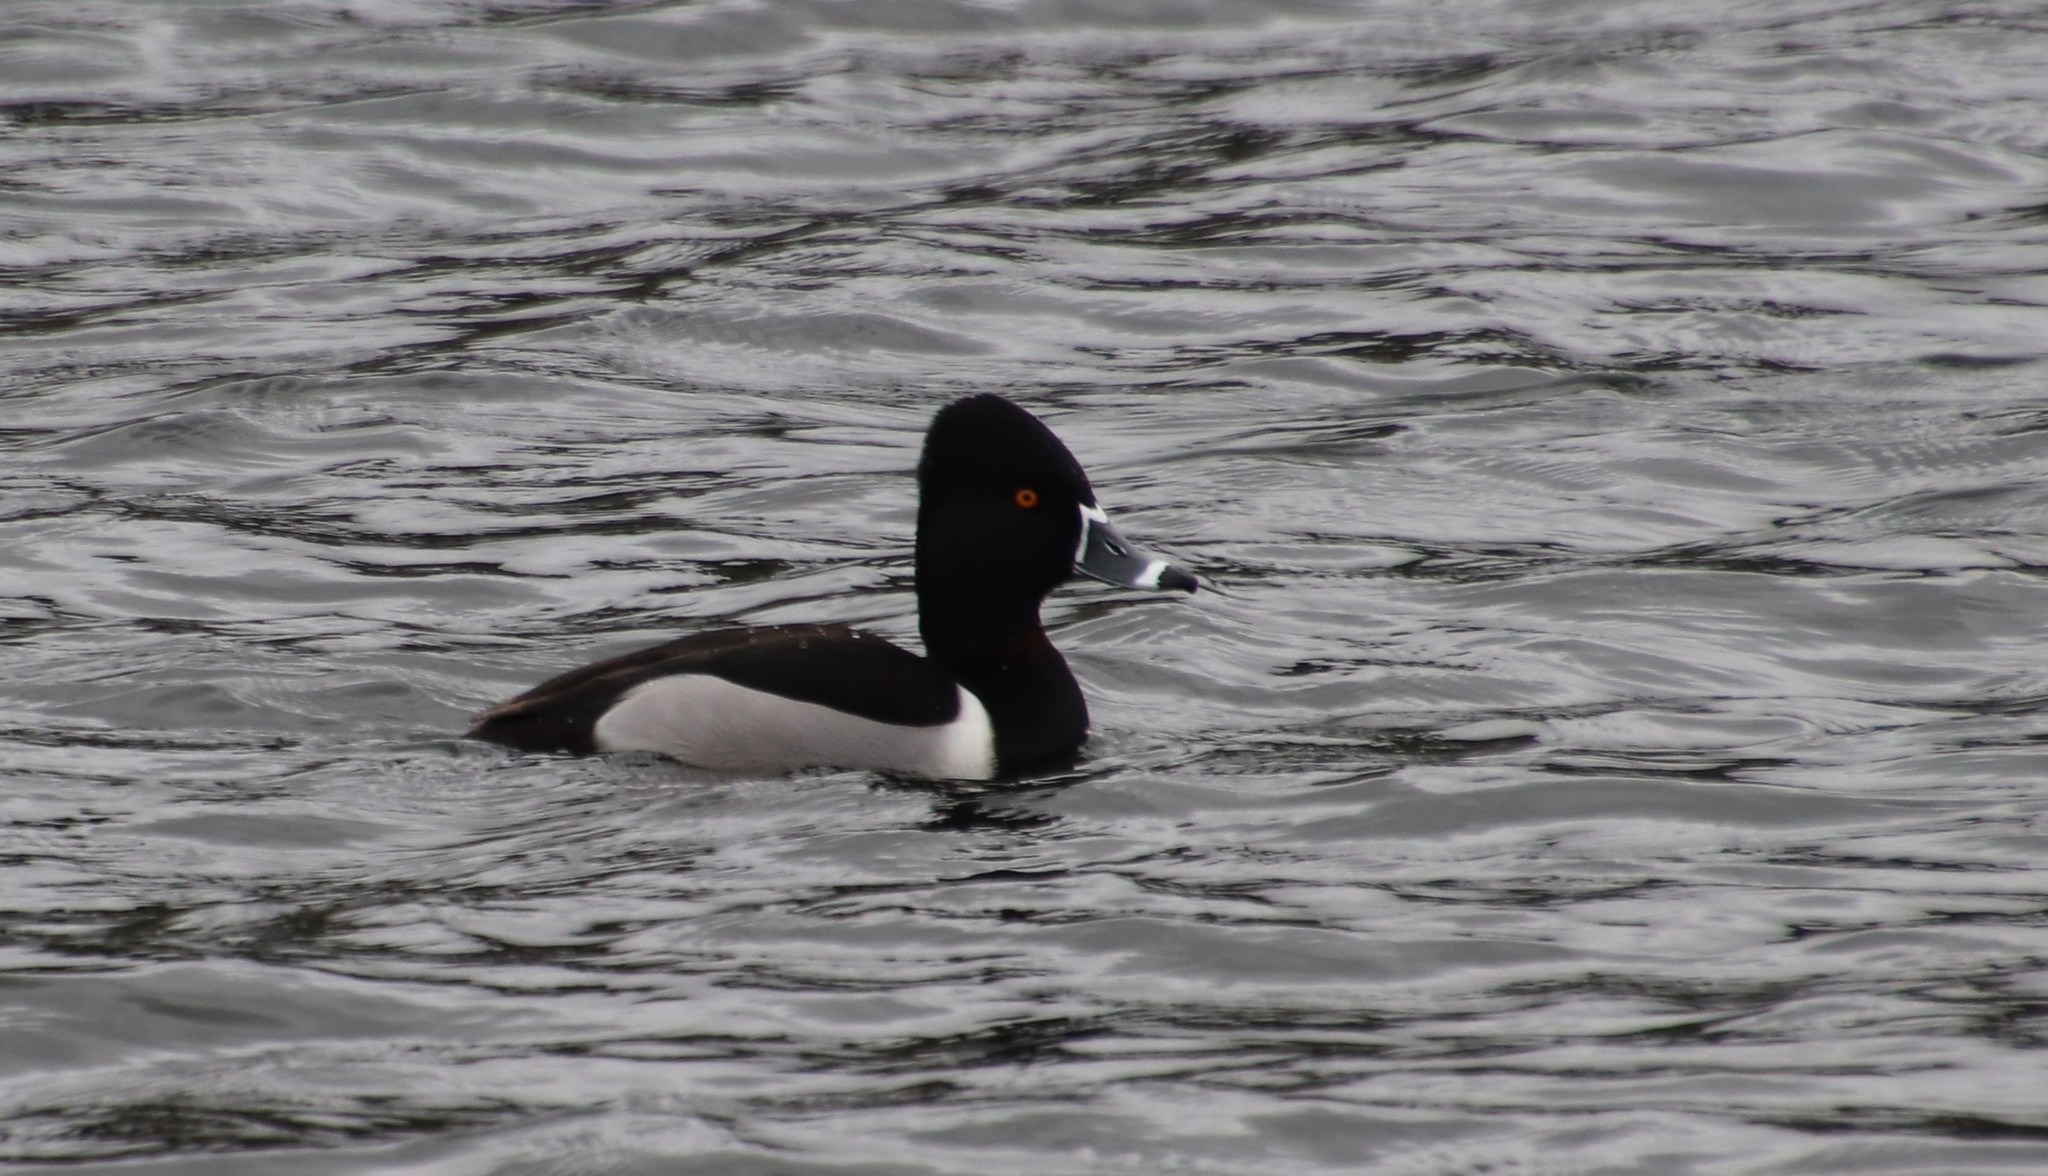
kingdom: Animalia
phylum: Chordata
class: Aves
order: Anseriformes
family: Anatidae
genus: Aythya
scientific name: Aythya collaris
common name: Ring-necked duck
